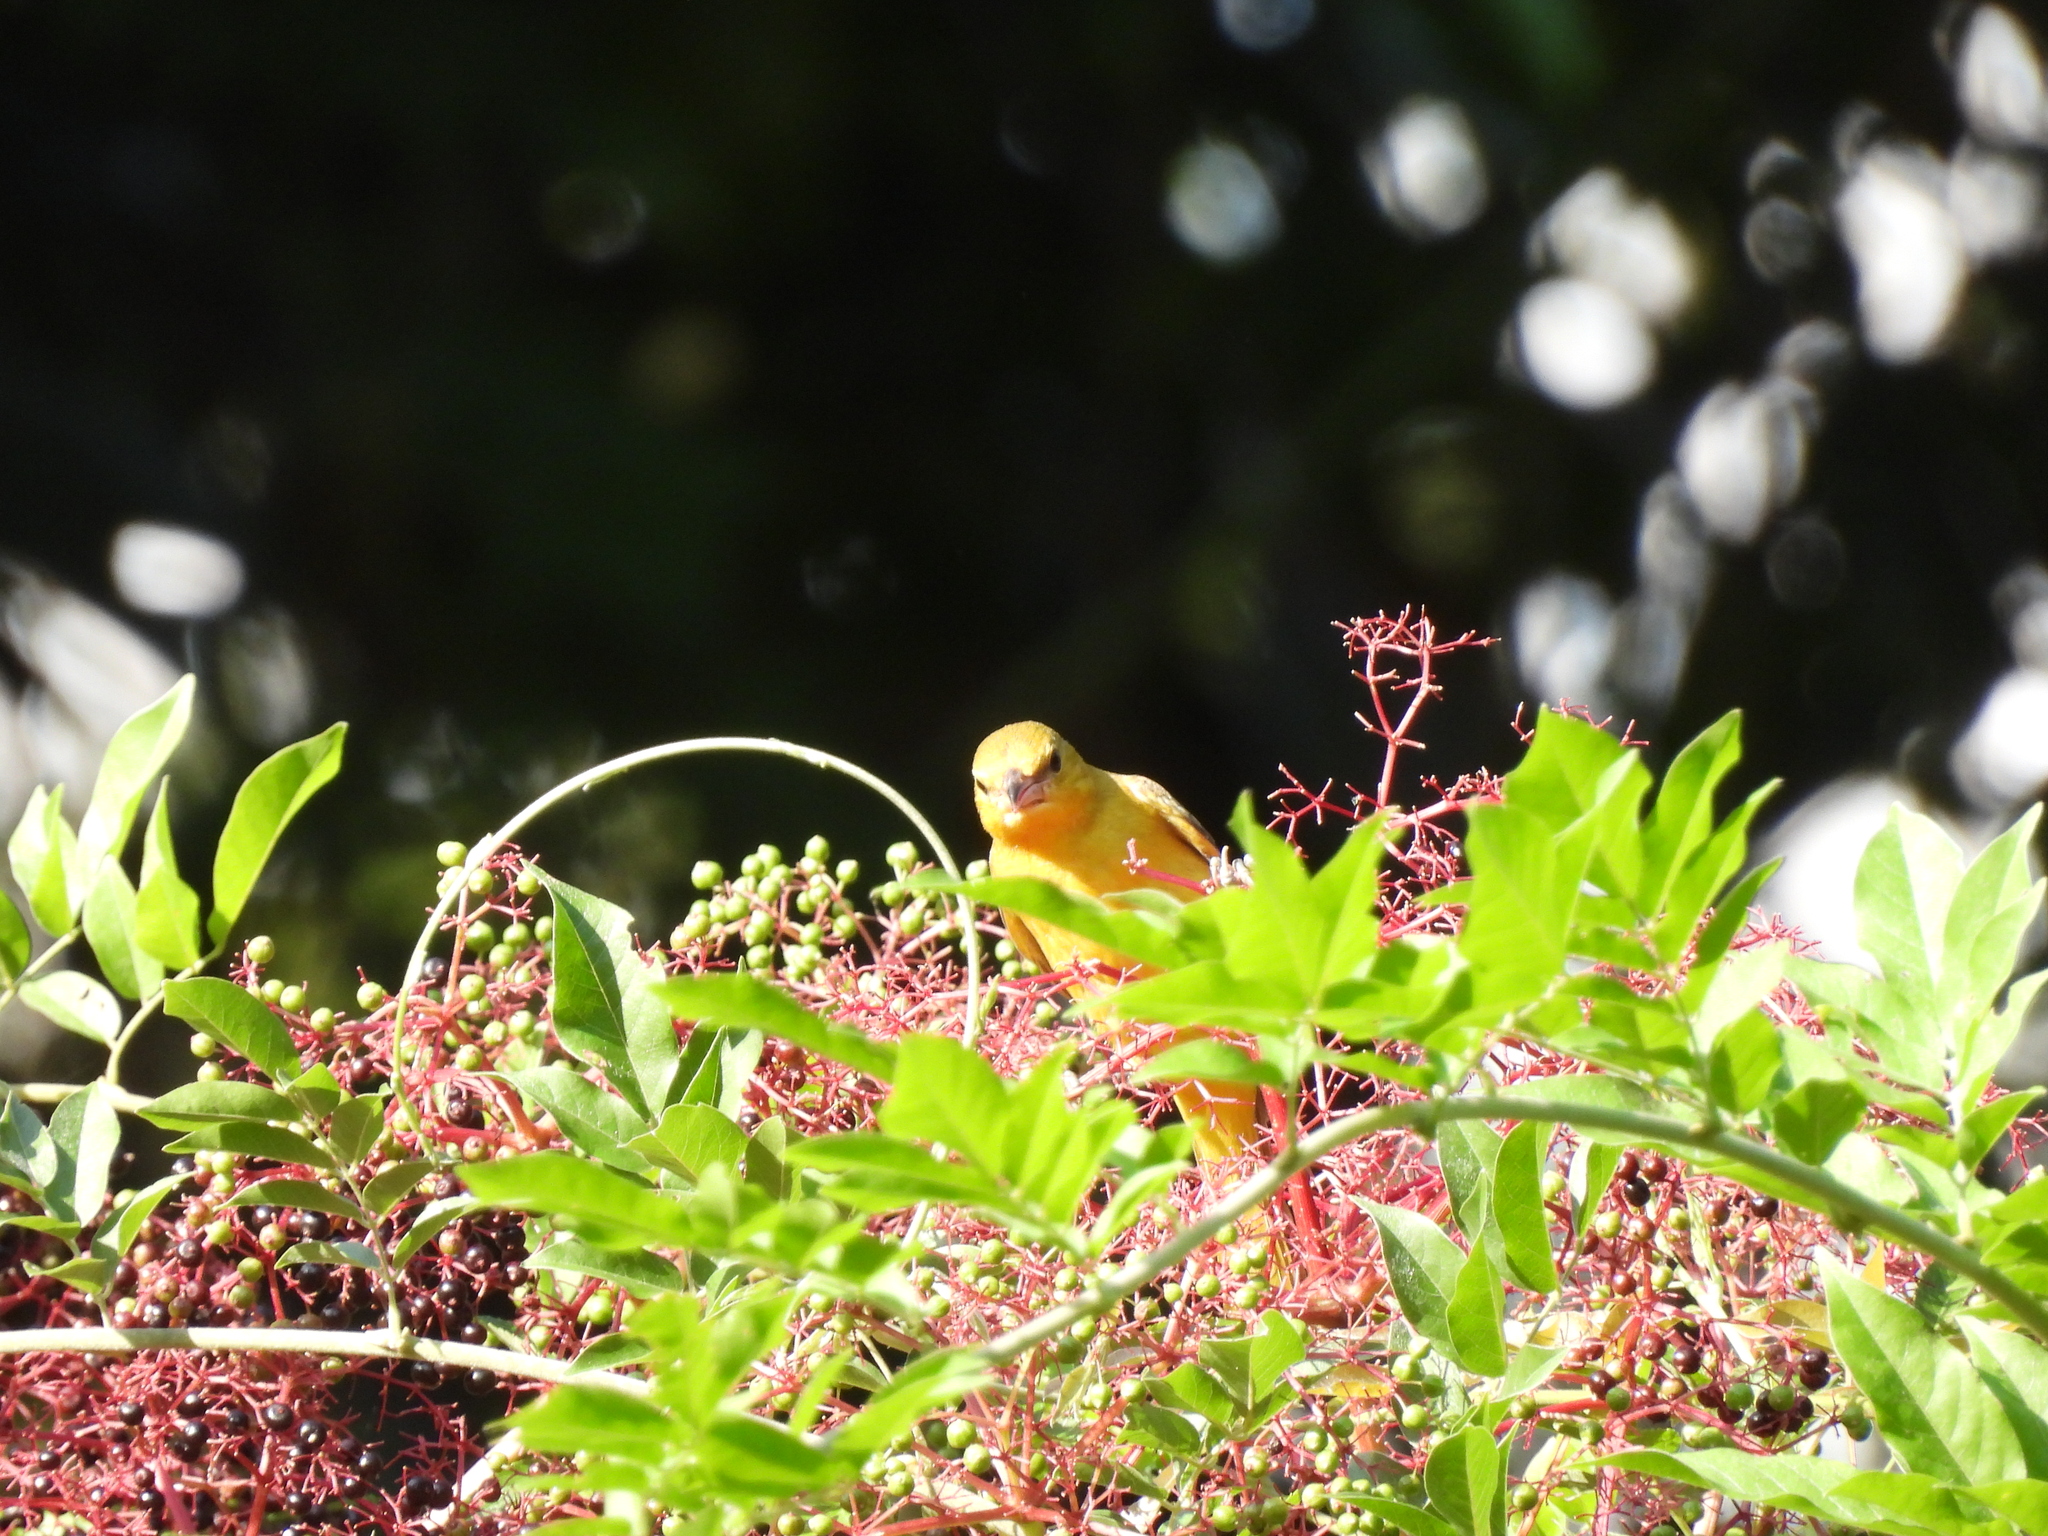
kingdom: Animalia
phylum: Chordata
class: Aves
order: Passeriformes
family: Icteridae
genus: Icterus
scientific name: Icterus spurius
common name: Orchard oriole
